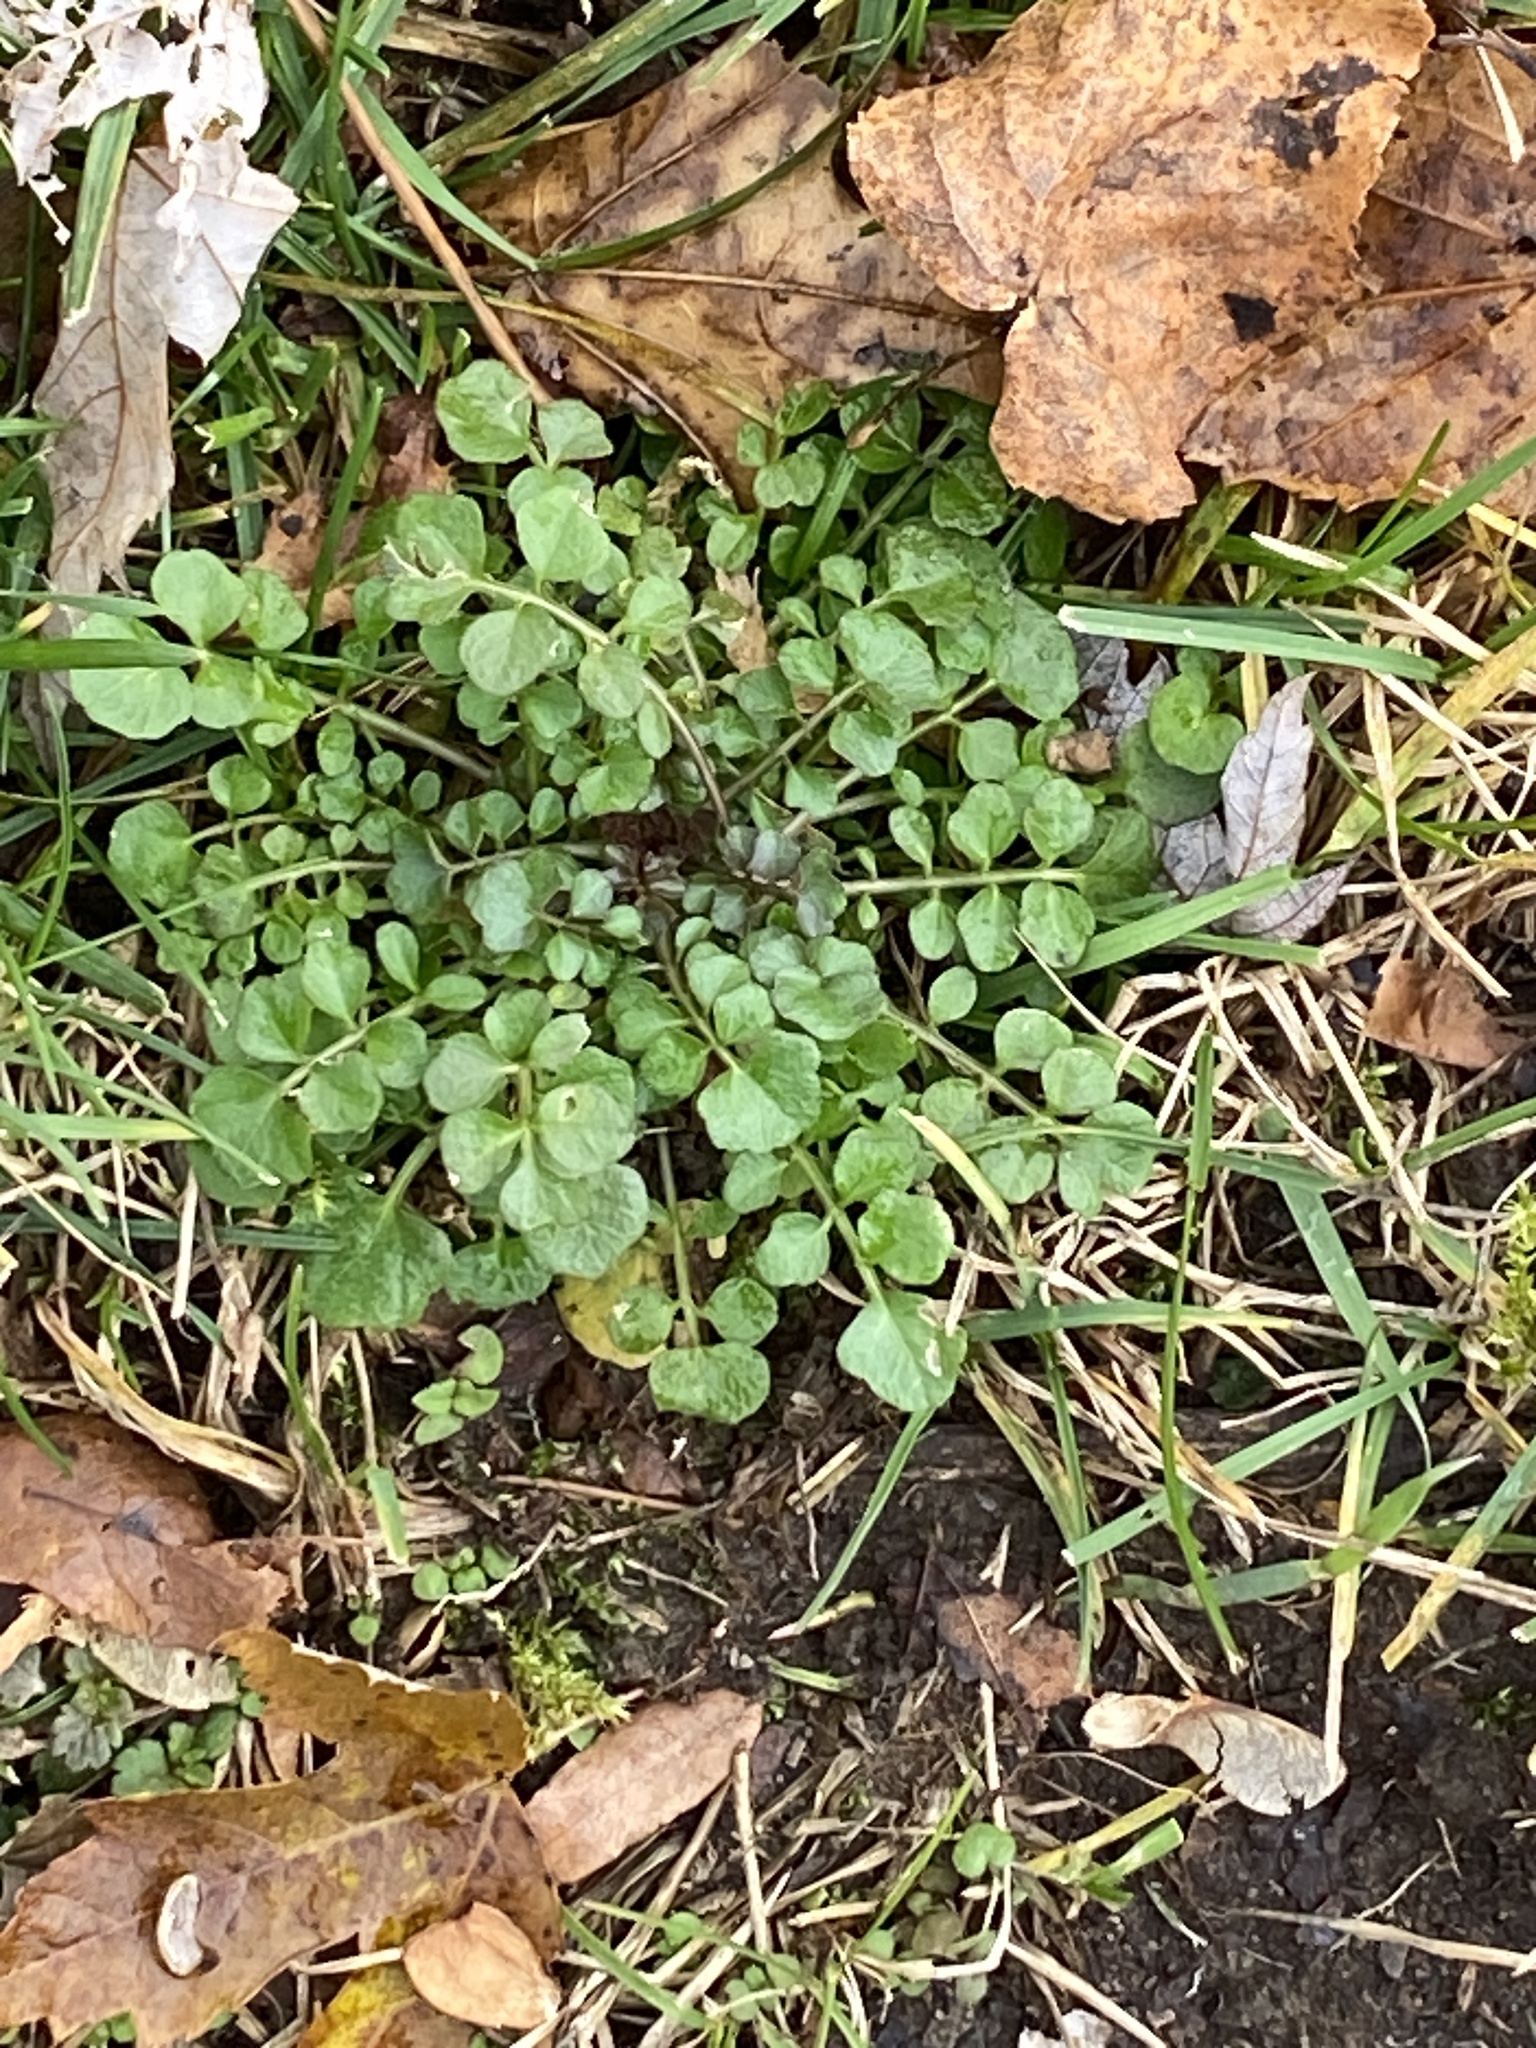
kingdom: Plantae
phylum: Tracheophyta
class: Magnoliopsida
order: Brassicales
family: Brassicaceae
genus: Cardamine
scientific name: Cardamine hirsuta
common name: Hairy bittercress
